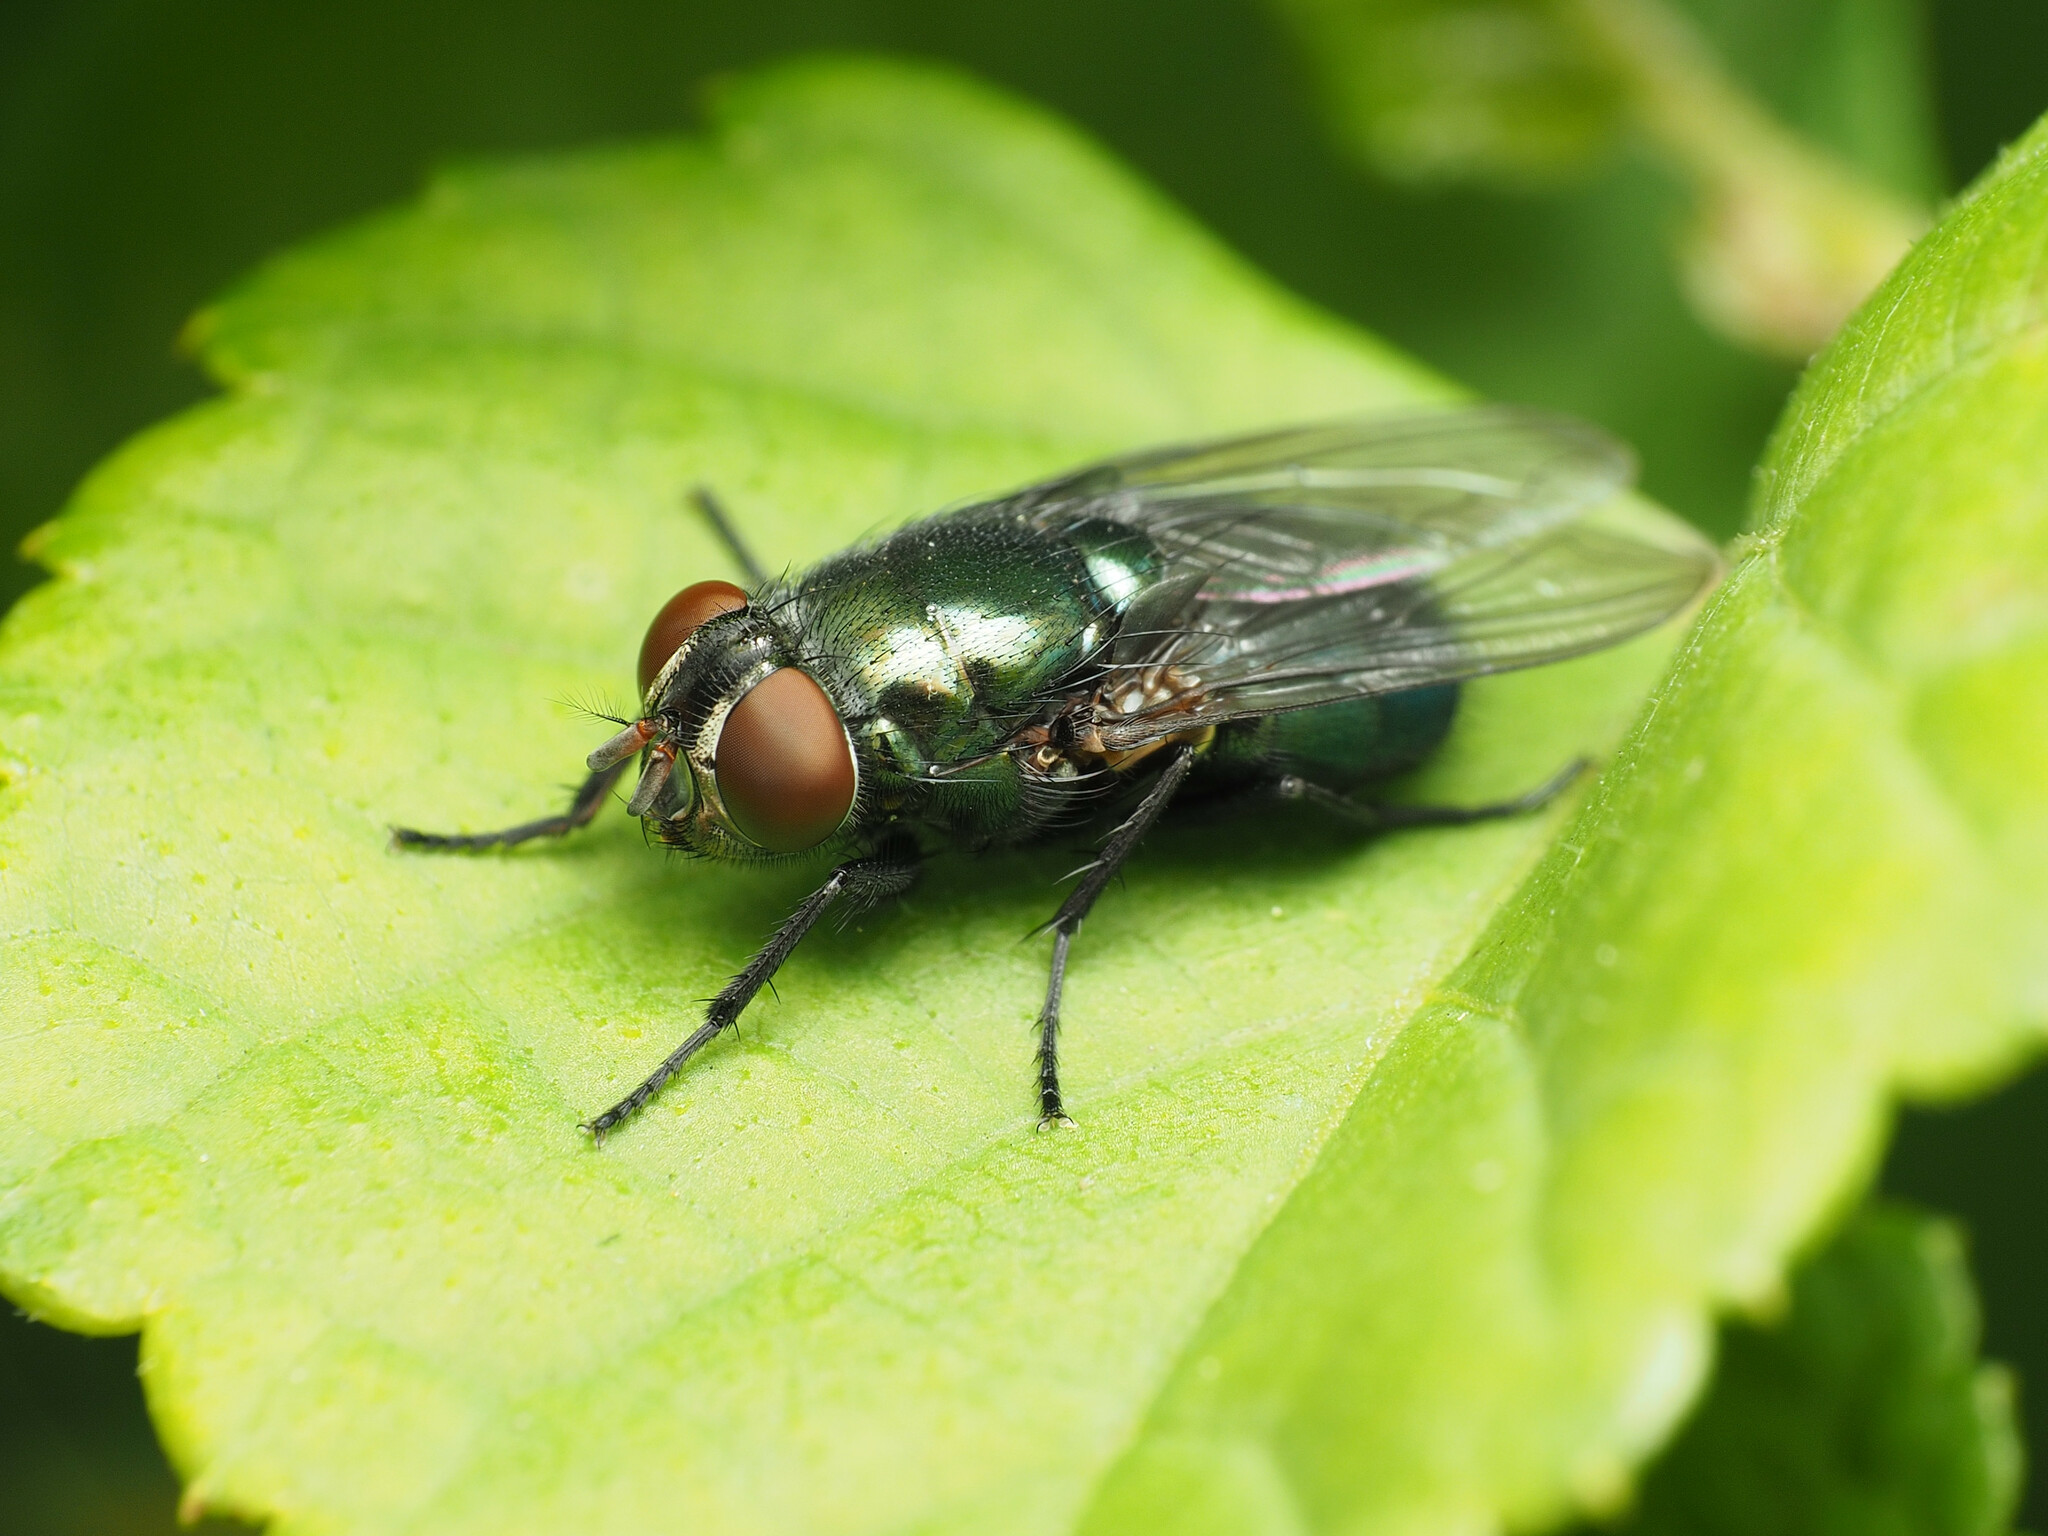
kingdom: Animalia
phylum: Arthropoda
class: Insecta
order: Diptera
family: Calliphoridae
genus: Phormia
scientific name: Phormia regina
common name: Black blow fly
